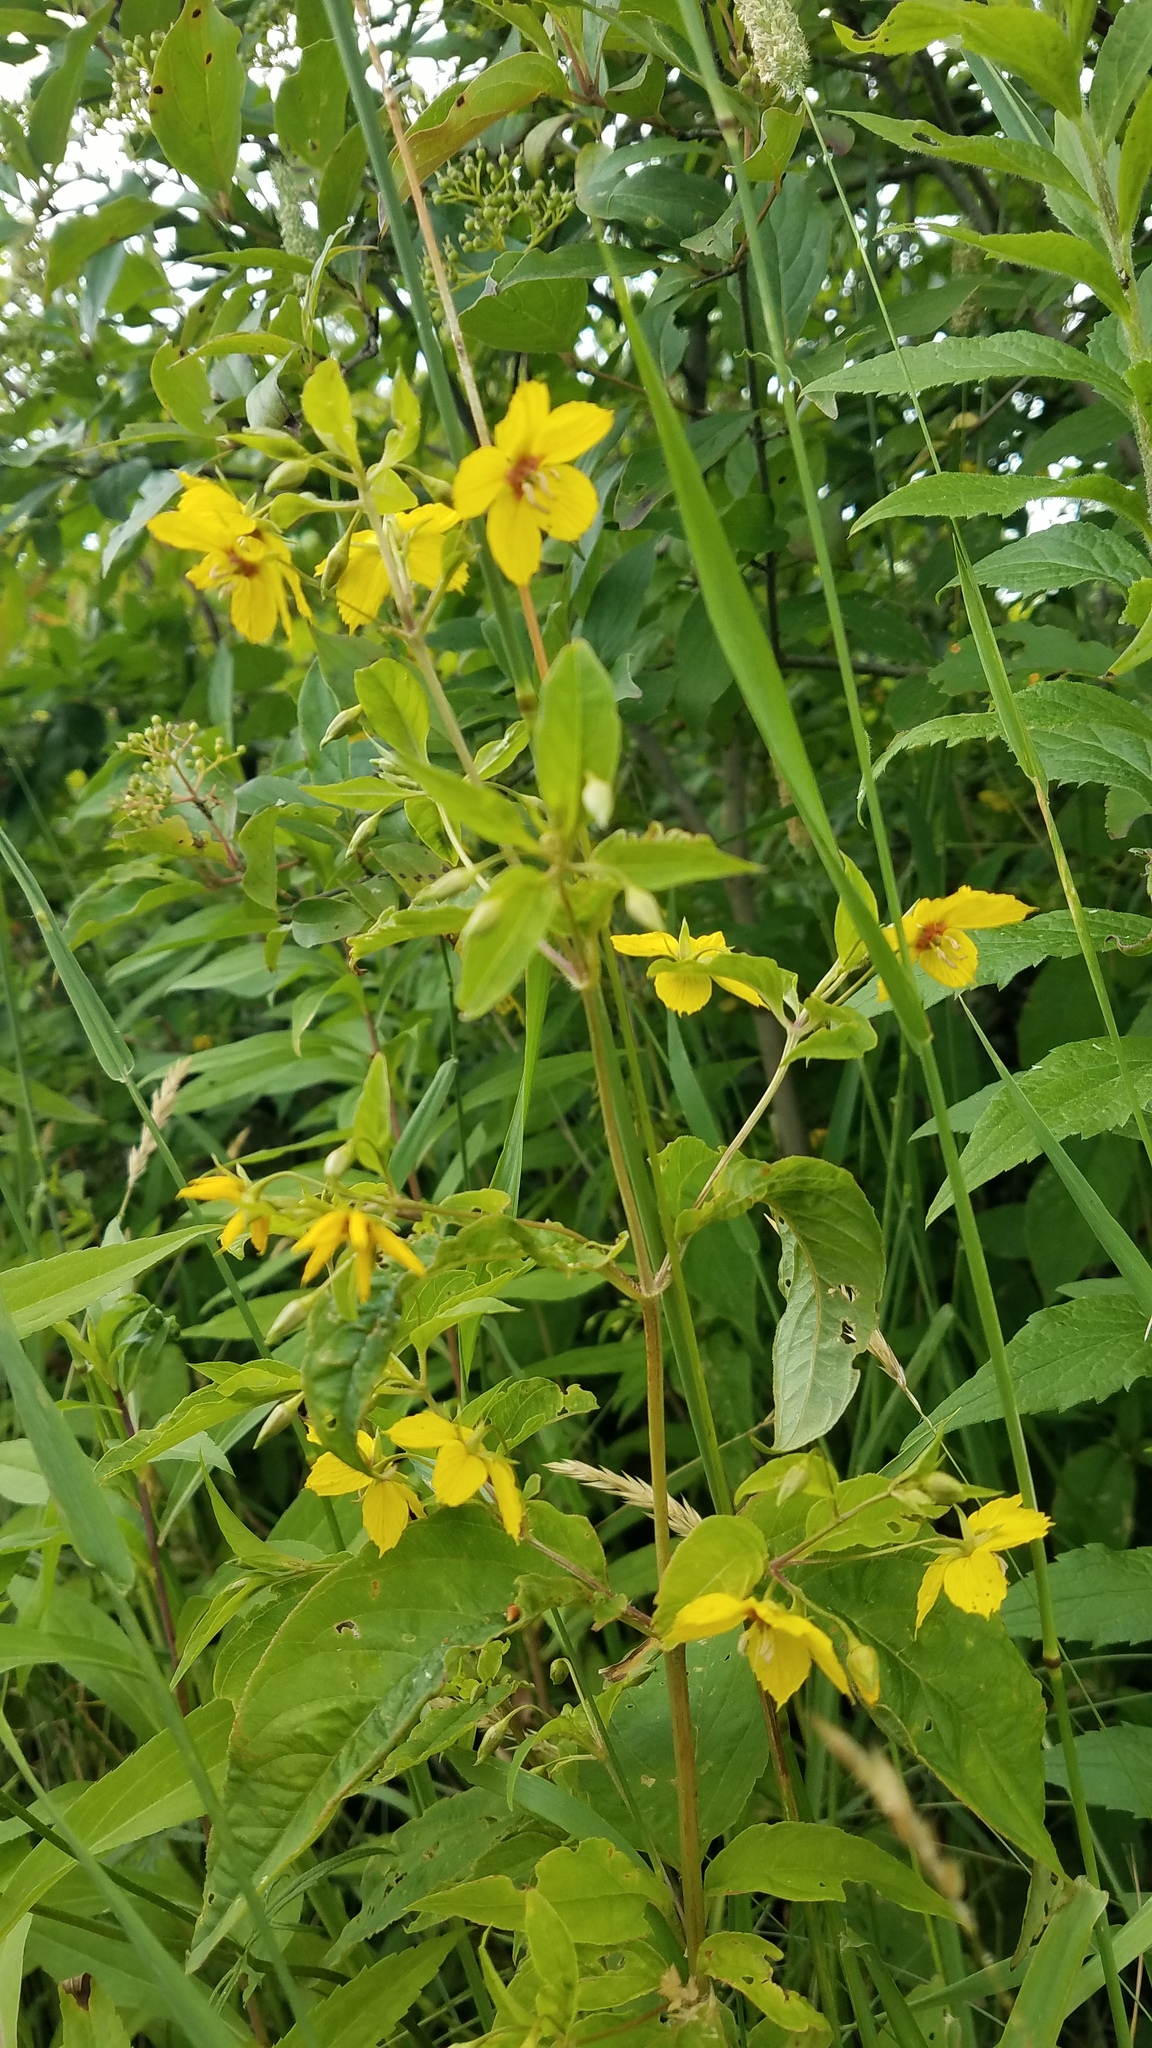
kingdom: Plantae
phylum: Tracheophyta
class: Magnoliopsida
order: Ericales
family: Primulaceae
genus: Lysimachia
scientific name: Lysimachia ciliata
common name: Fringed loosestrife
